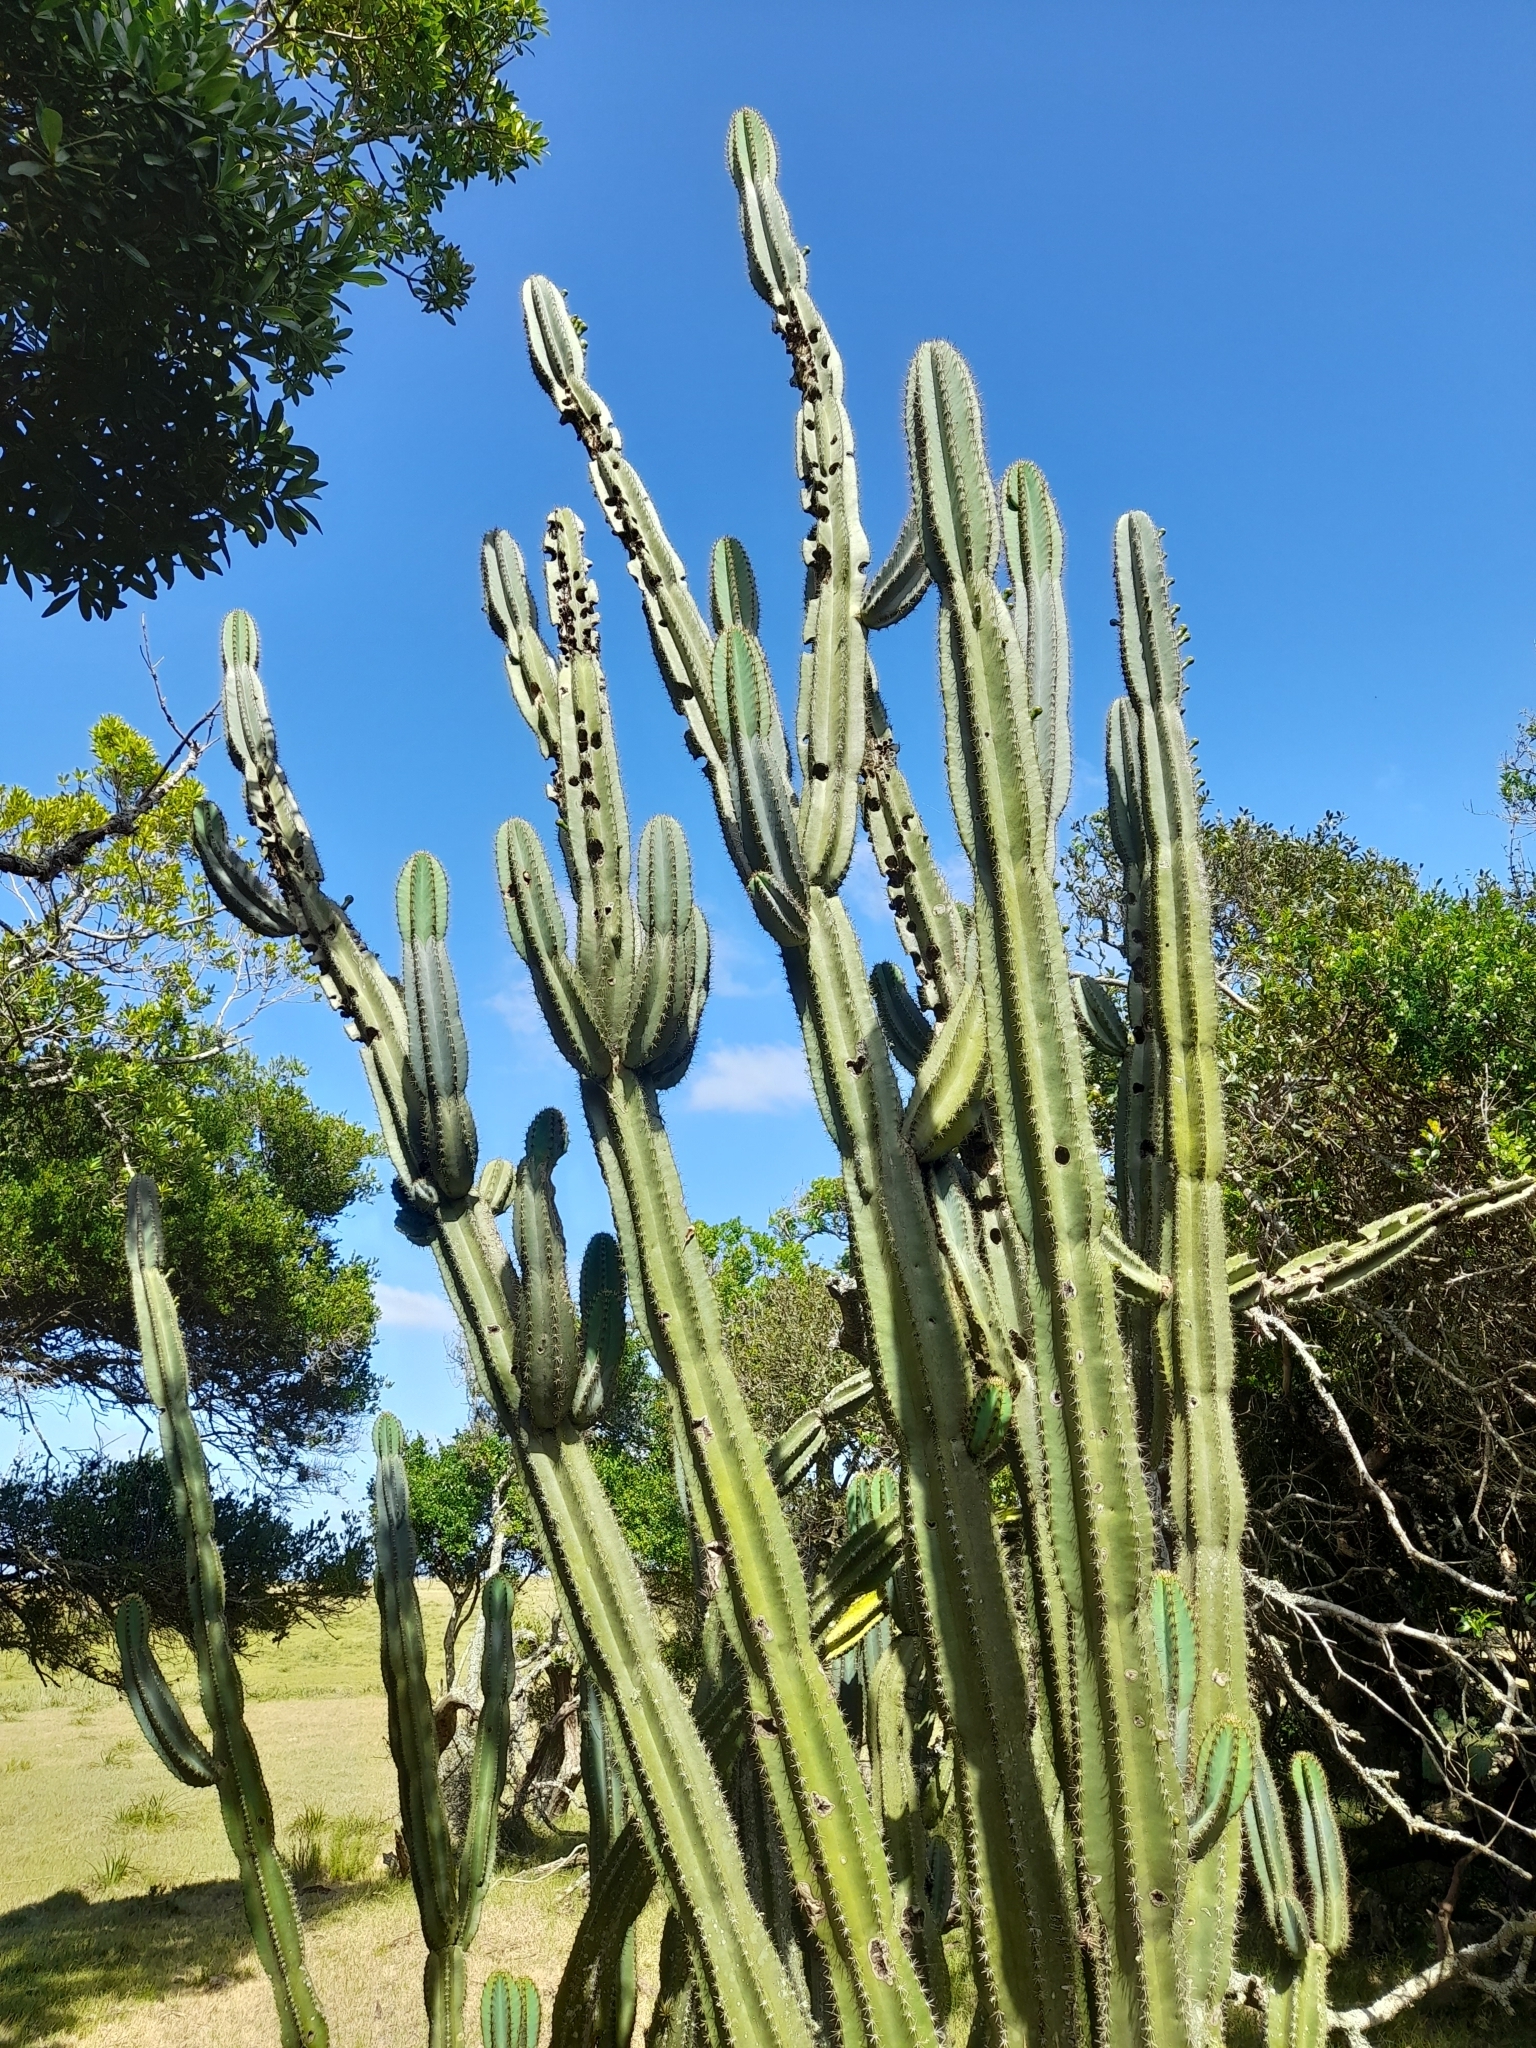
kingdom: Plantae
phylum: Tracheophyta
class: Magnoliopsida
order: Caryophyllales
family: Cactaceae
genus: Cereus
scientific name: Cereus hildmannianus
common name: Hedge cactus
